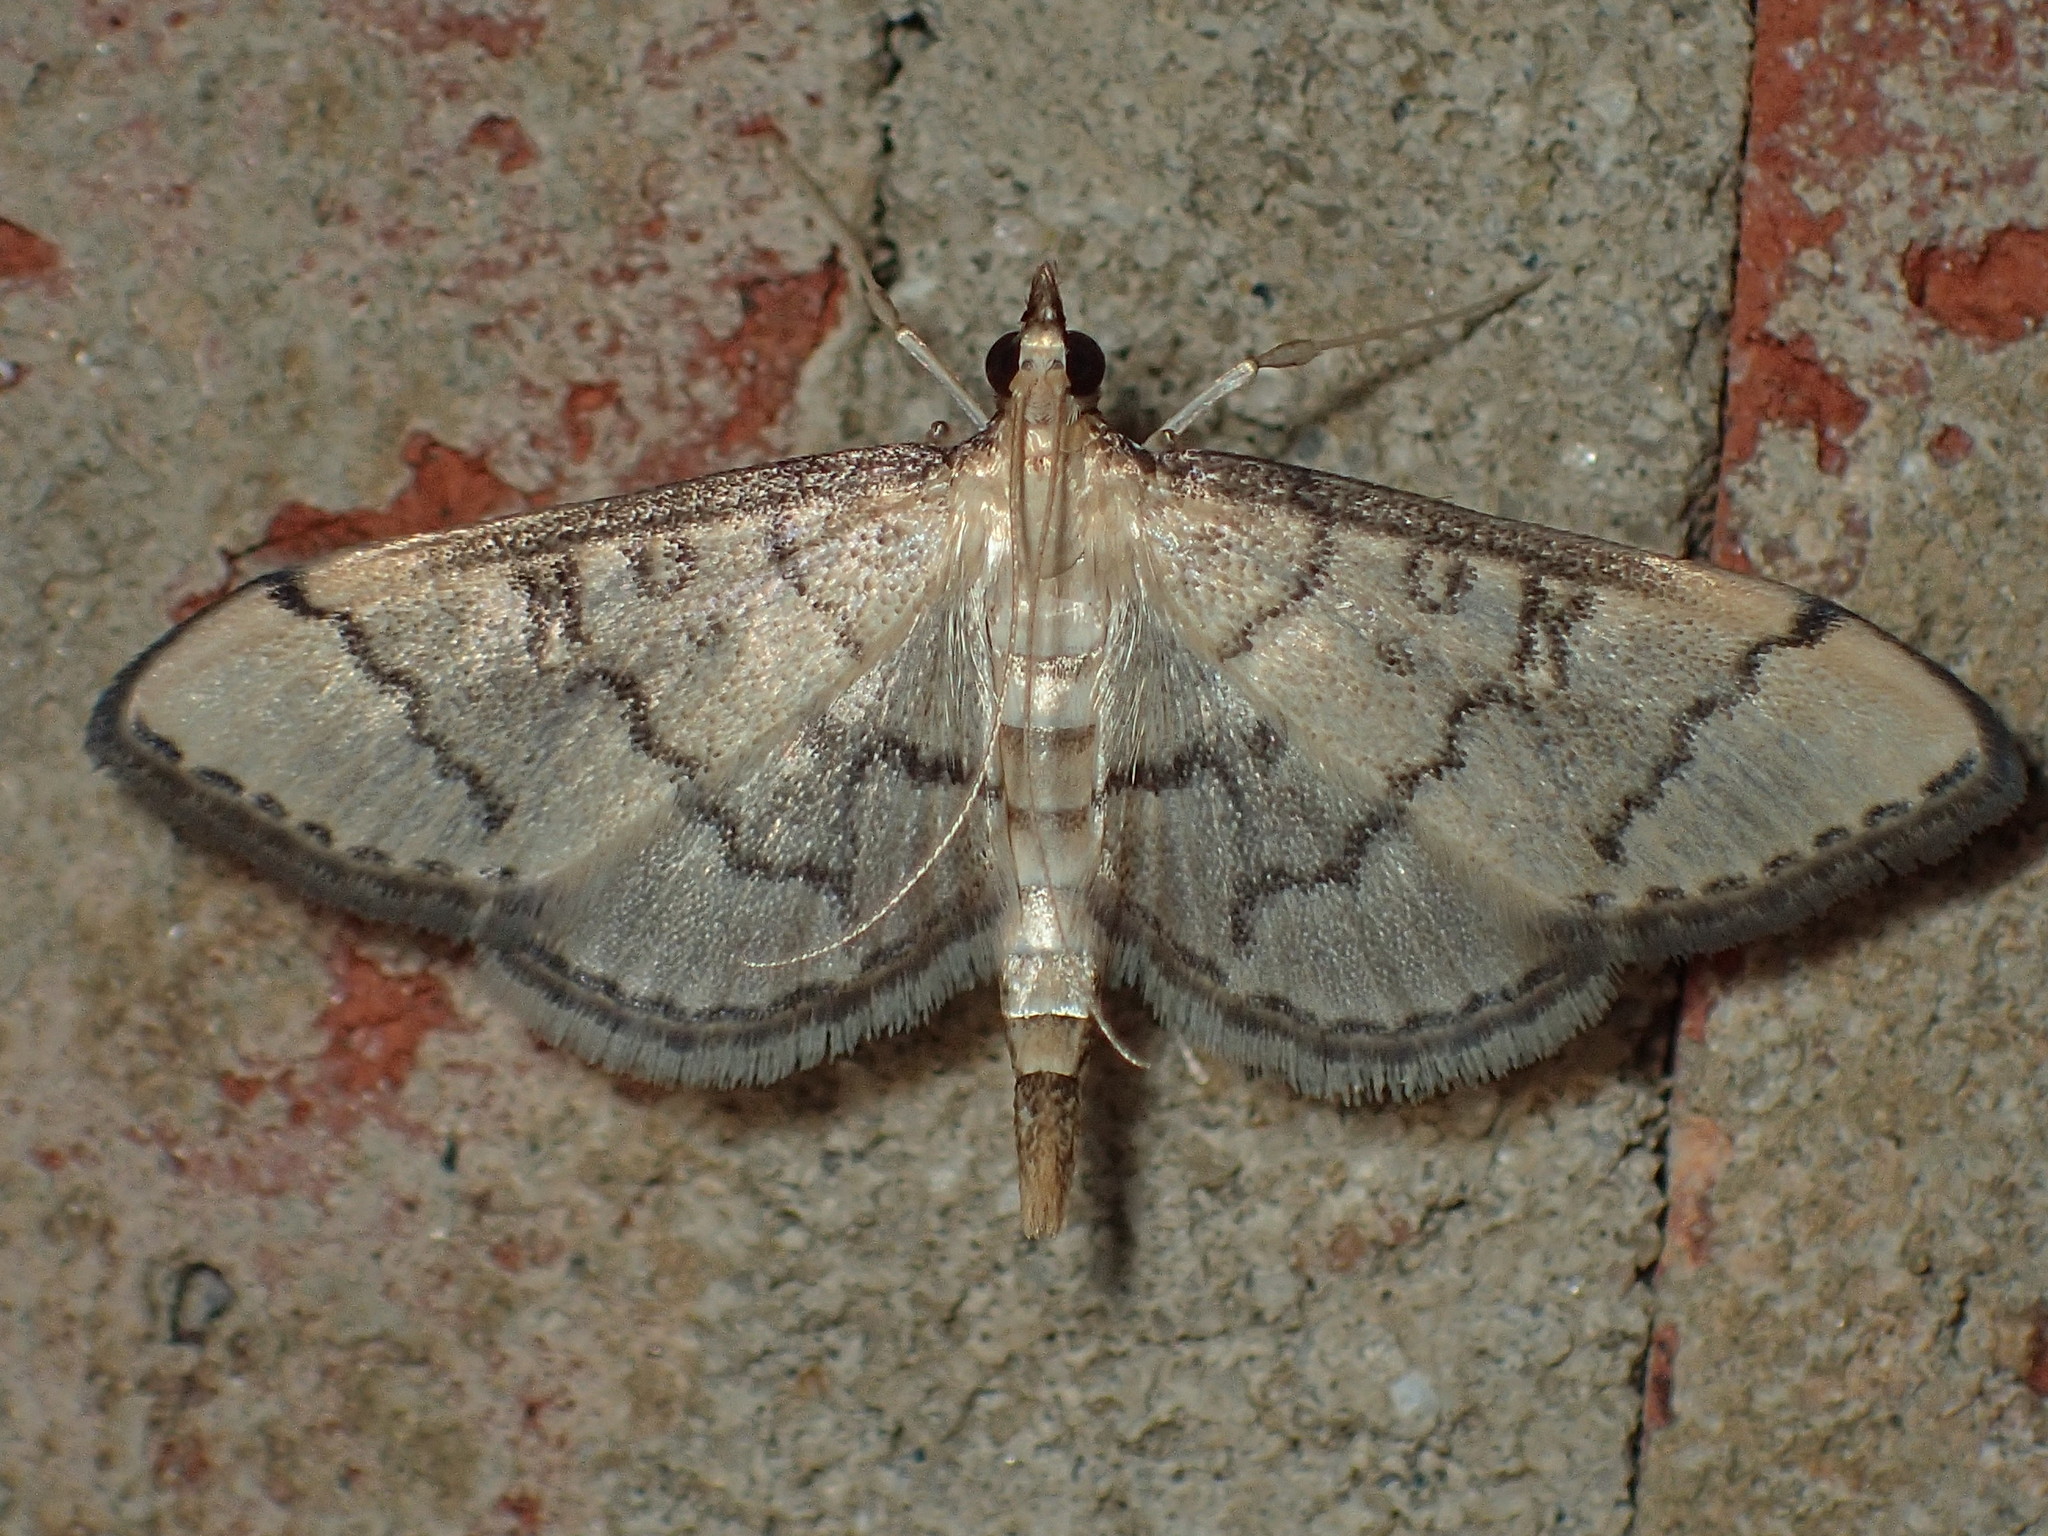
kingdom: Animalia
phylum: Arthropoda
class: Insecta
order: Lepidoptera
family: Crambidae
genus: Lamprosema
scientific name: Lamprosema Blepharomastix ranalis
